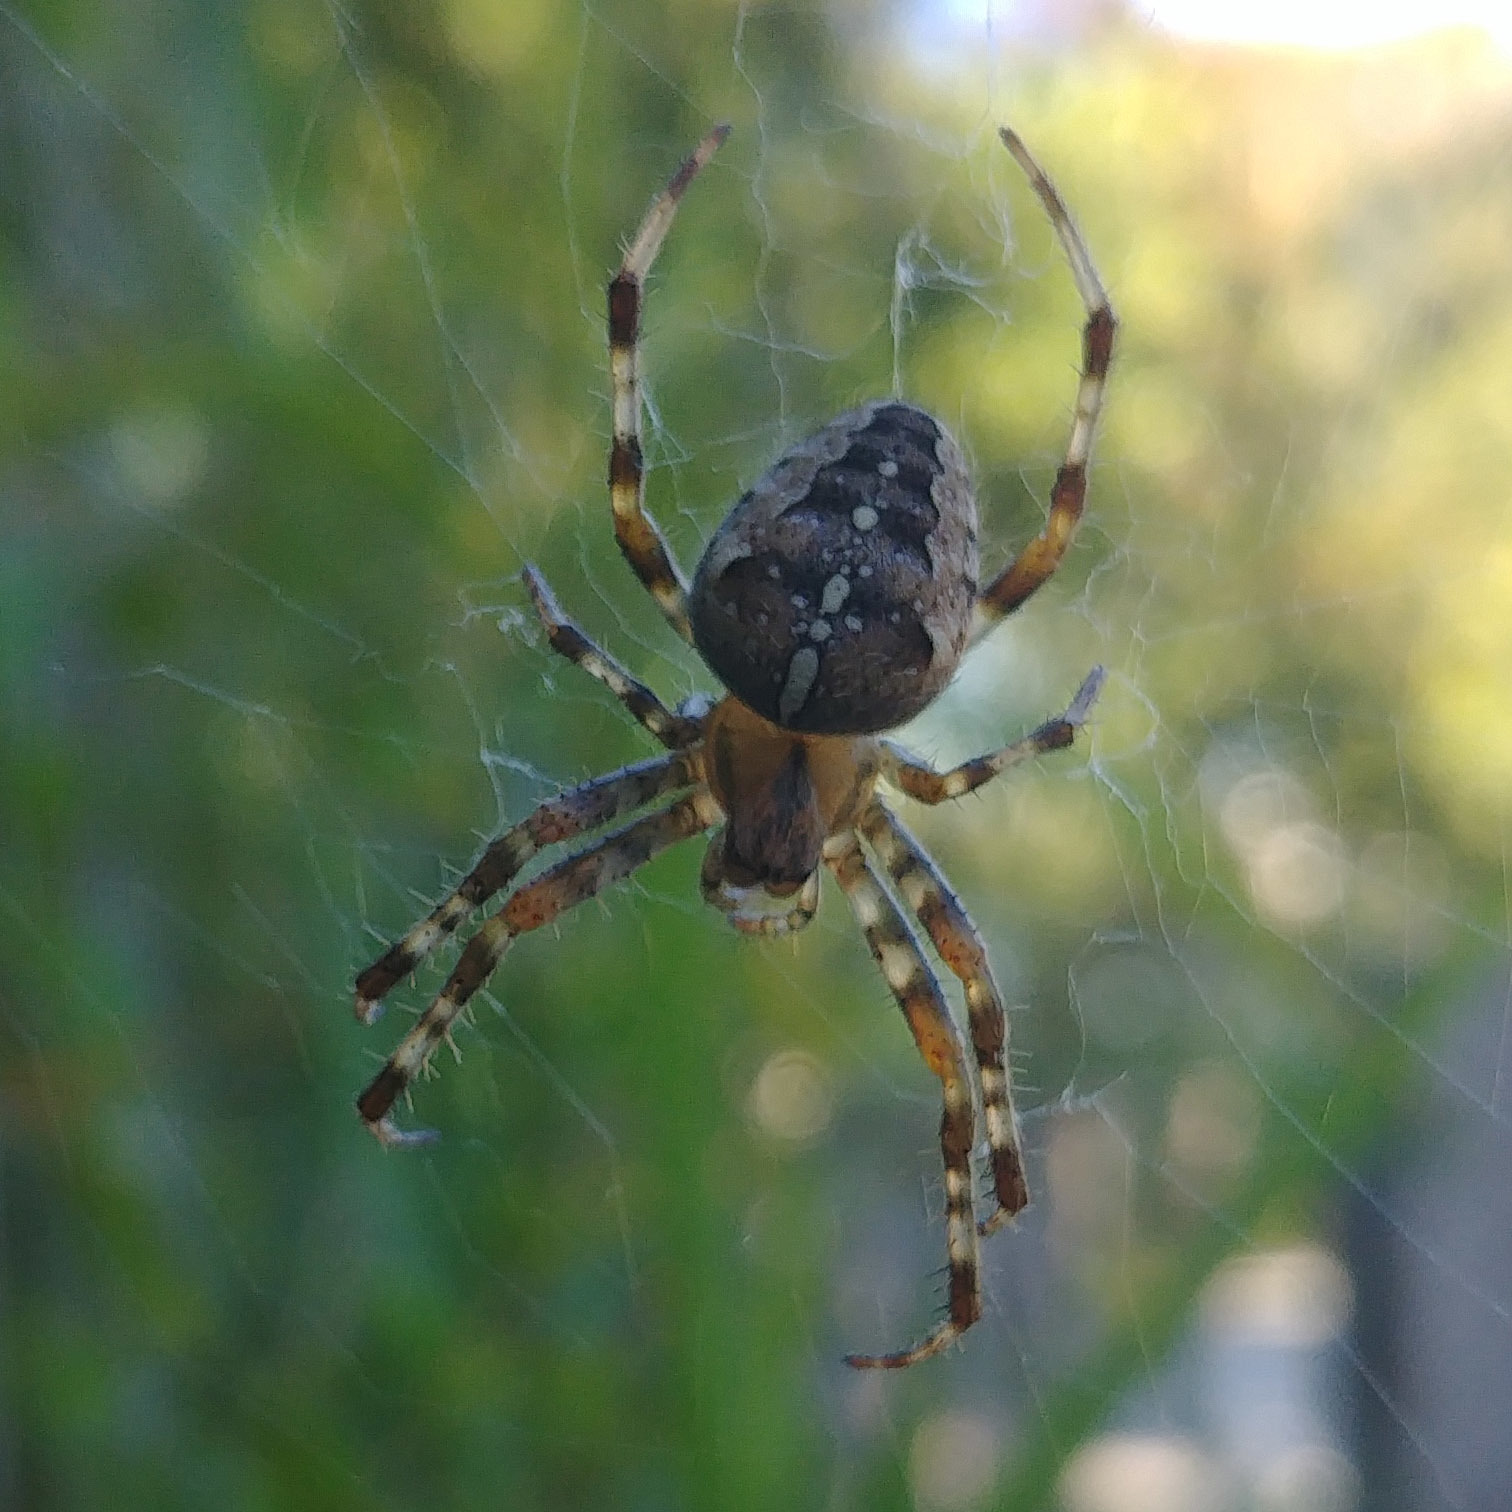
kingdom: Animalia
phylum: Arthropoda
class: Arachnida
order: Araneae
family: Araneidae
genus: Araneus
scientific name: Araneus diadematus
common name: Cross orbweaver
